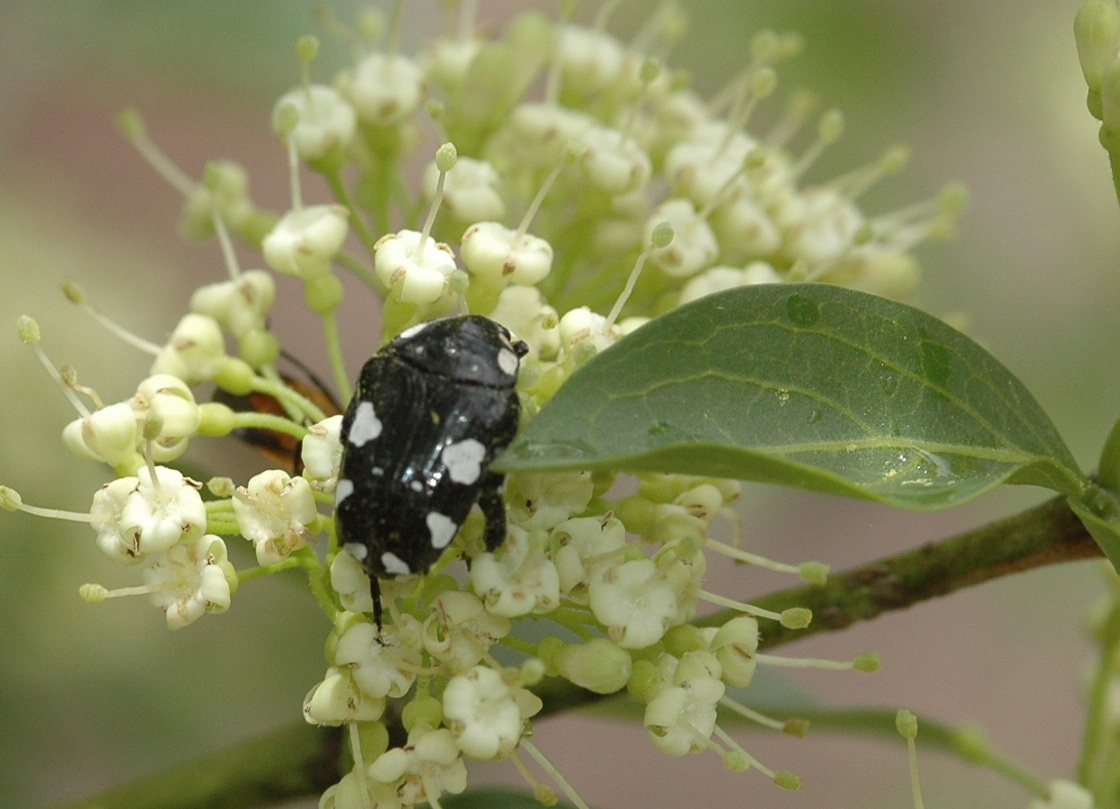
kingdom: Animalia
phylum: Arthropoda
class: Insecta
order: Coleoptera
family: Scarabaeidae
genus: Mausoleopsis
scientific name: Mausoleopsis amabilis
